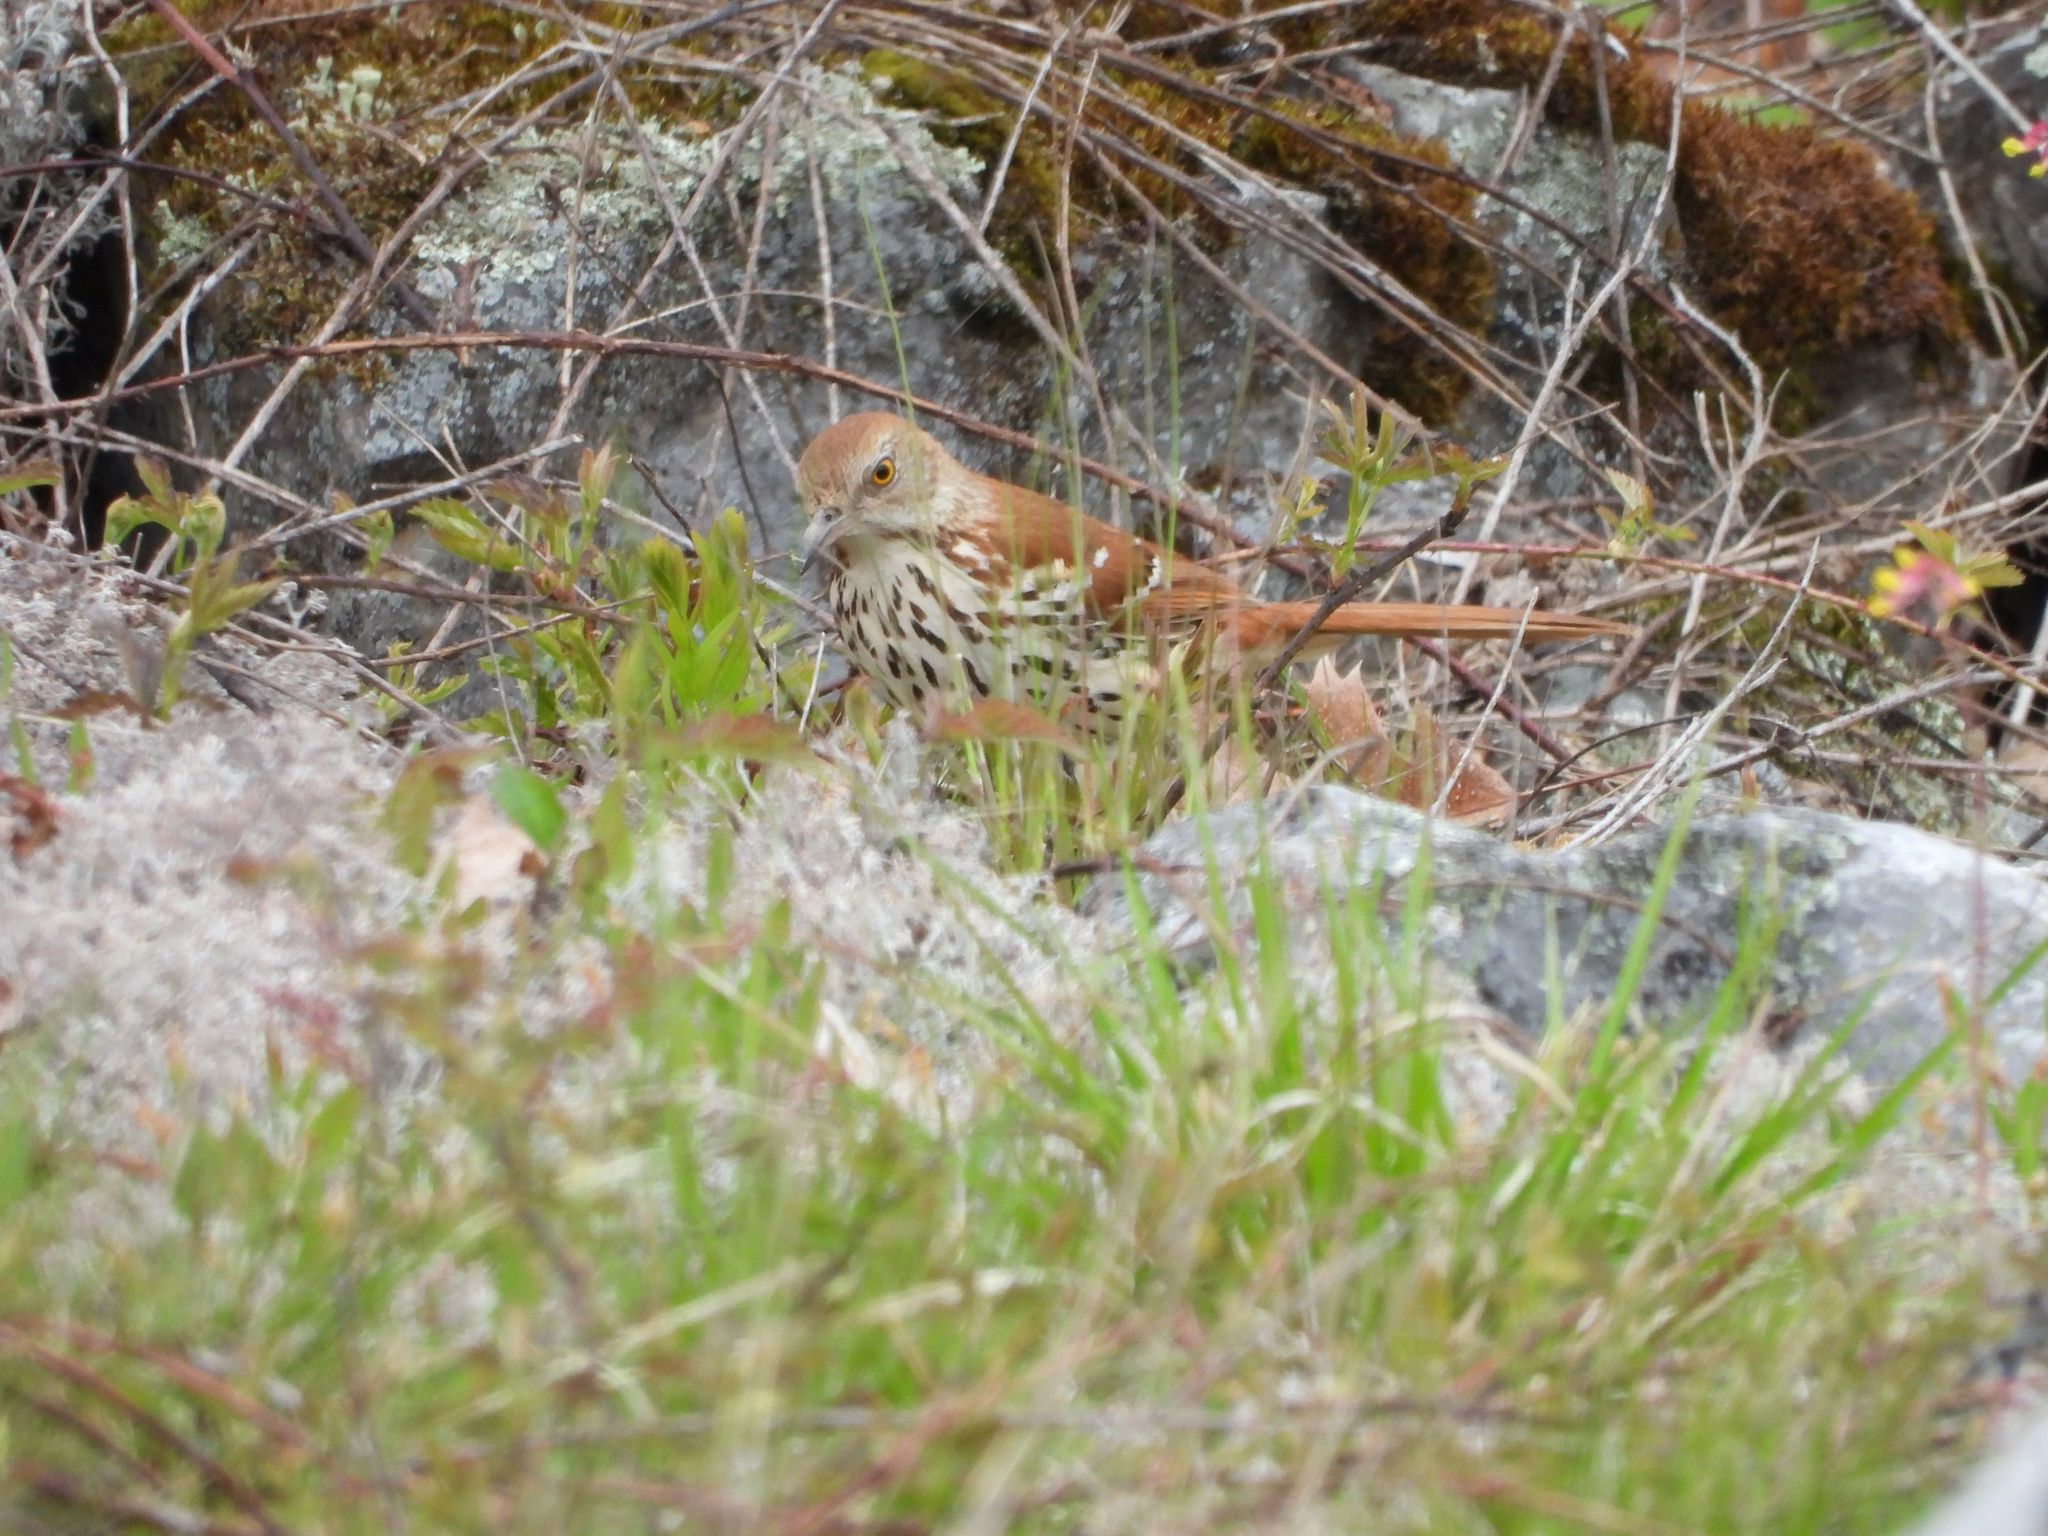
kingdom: Animalia
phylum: Chordata
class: Aves
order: Passeriformes
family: Mimidae
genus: Toxostoma
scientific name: Toxostoma rufum
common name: Brown thrasher
